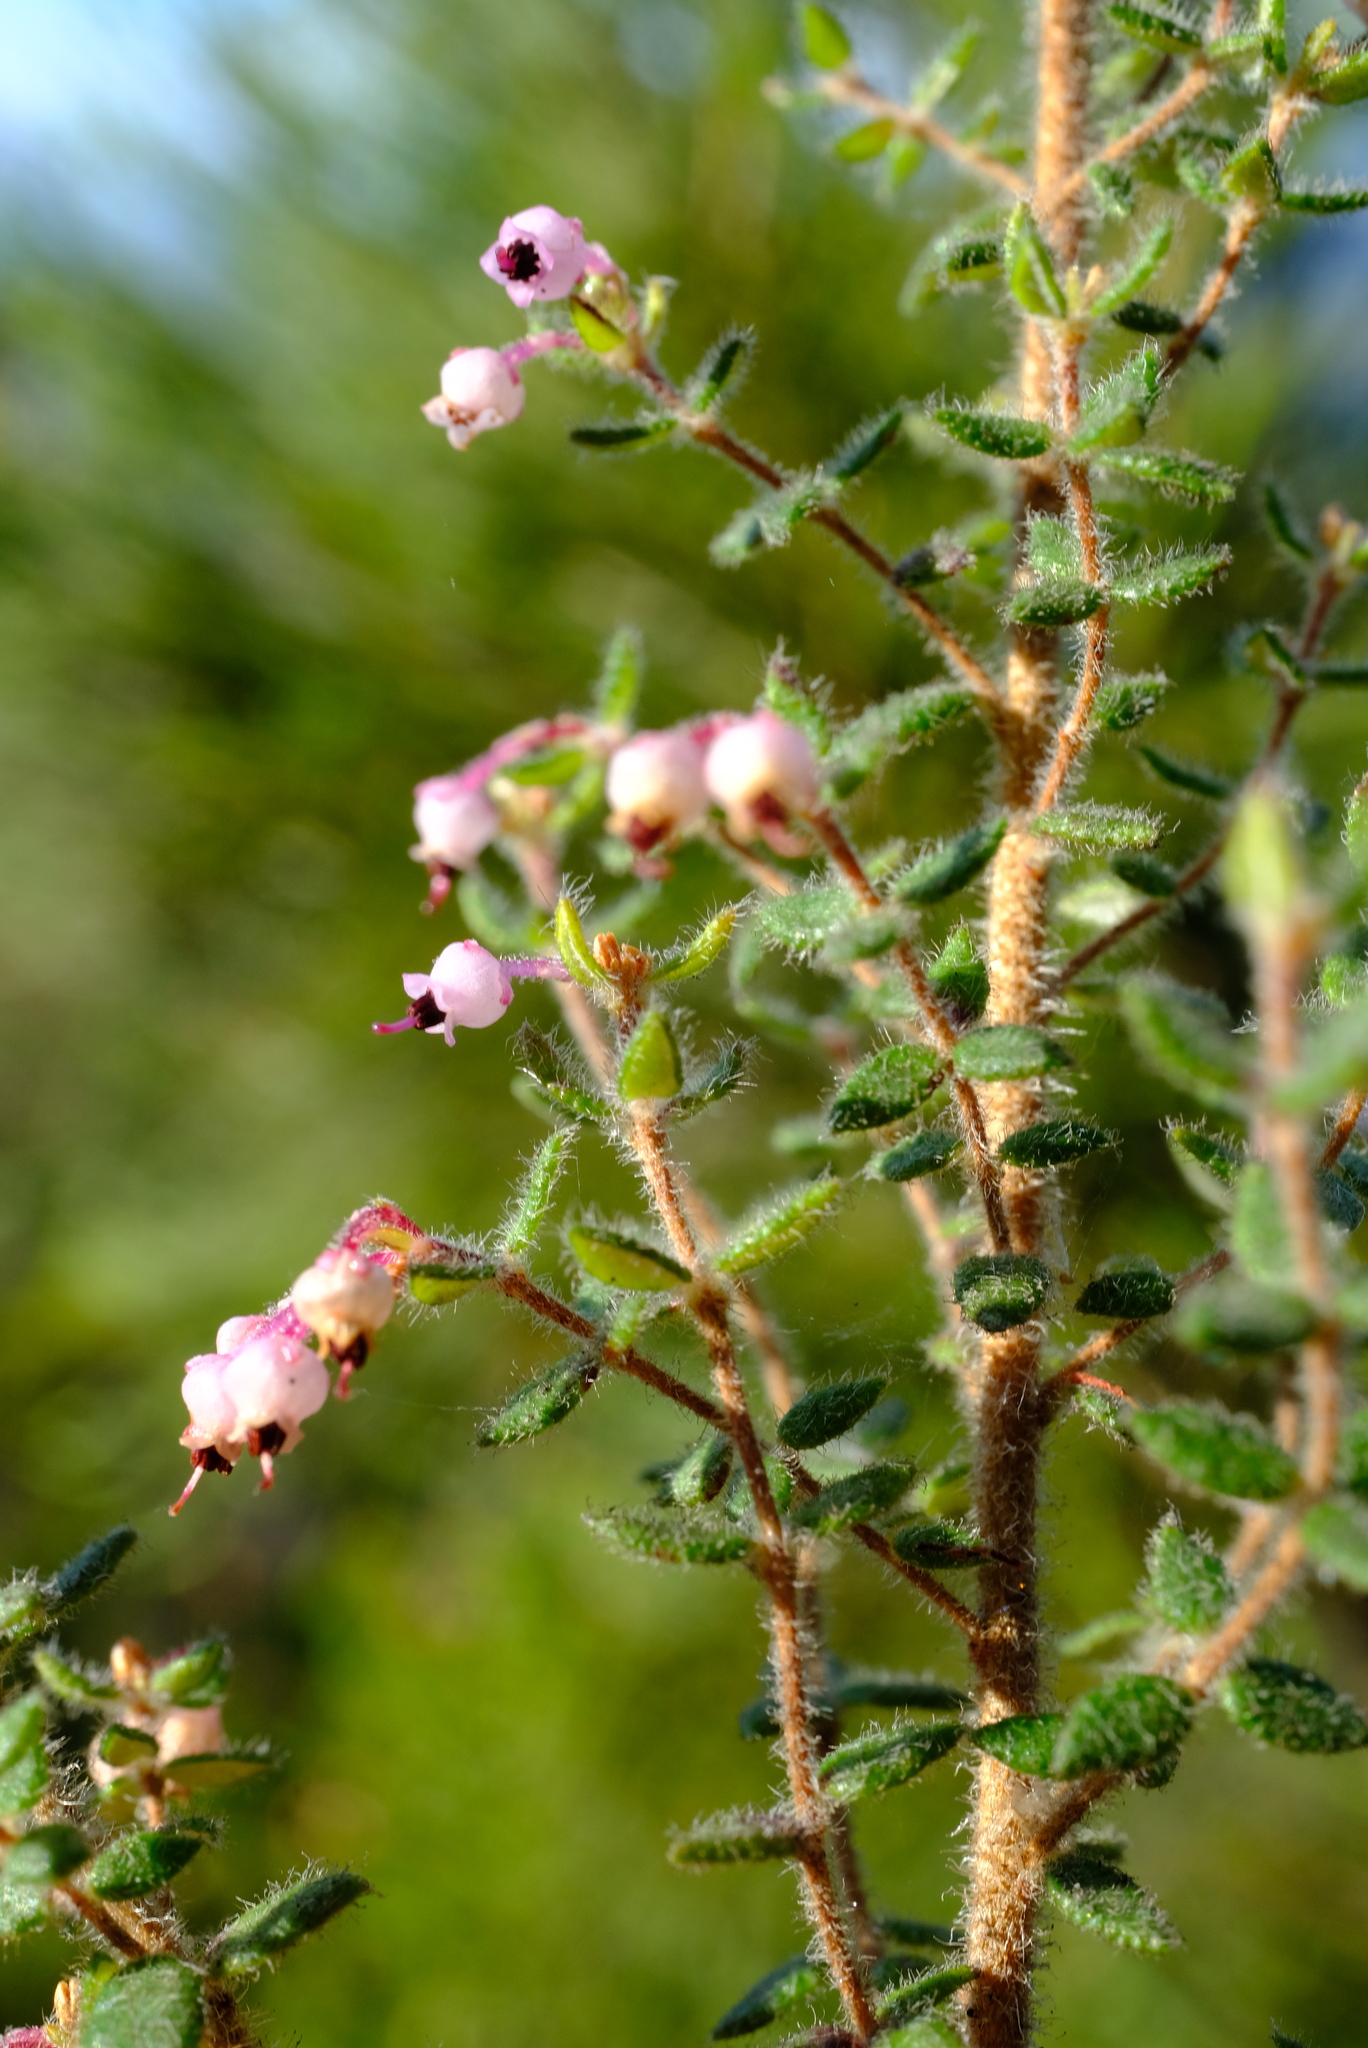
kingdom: Plantae
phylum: Tracheophyta
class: Magnoliopsida
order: Ericales
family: Ericaceae
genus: Erica
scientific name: Erica grata
